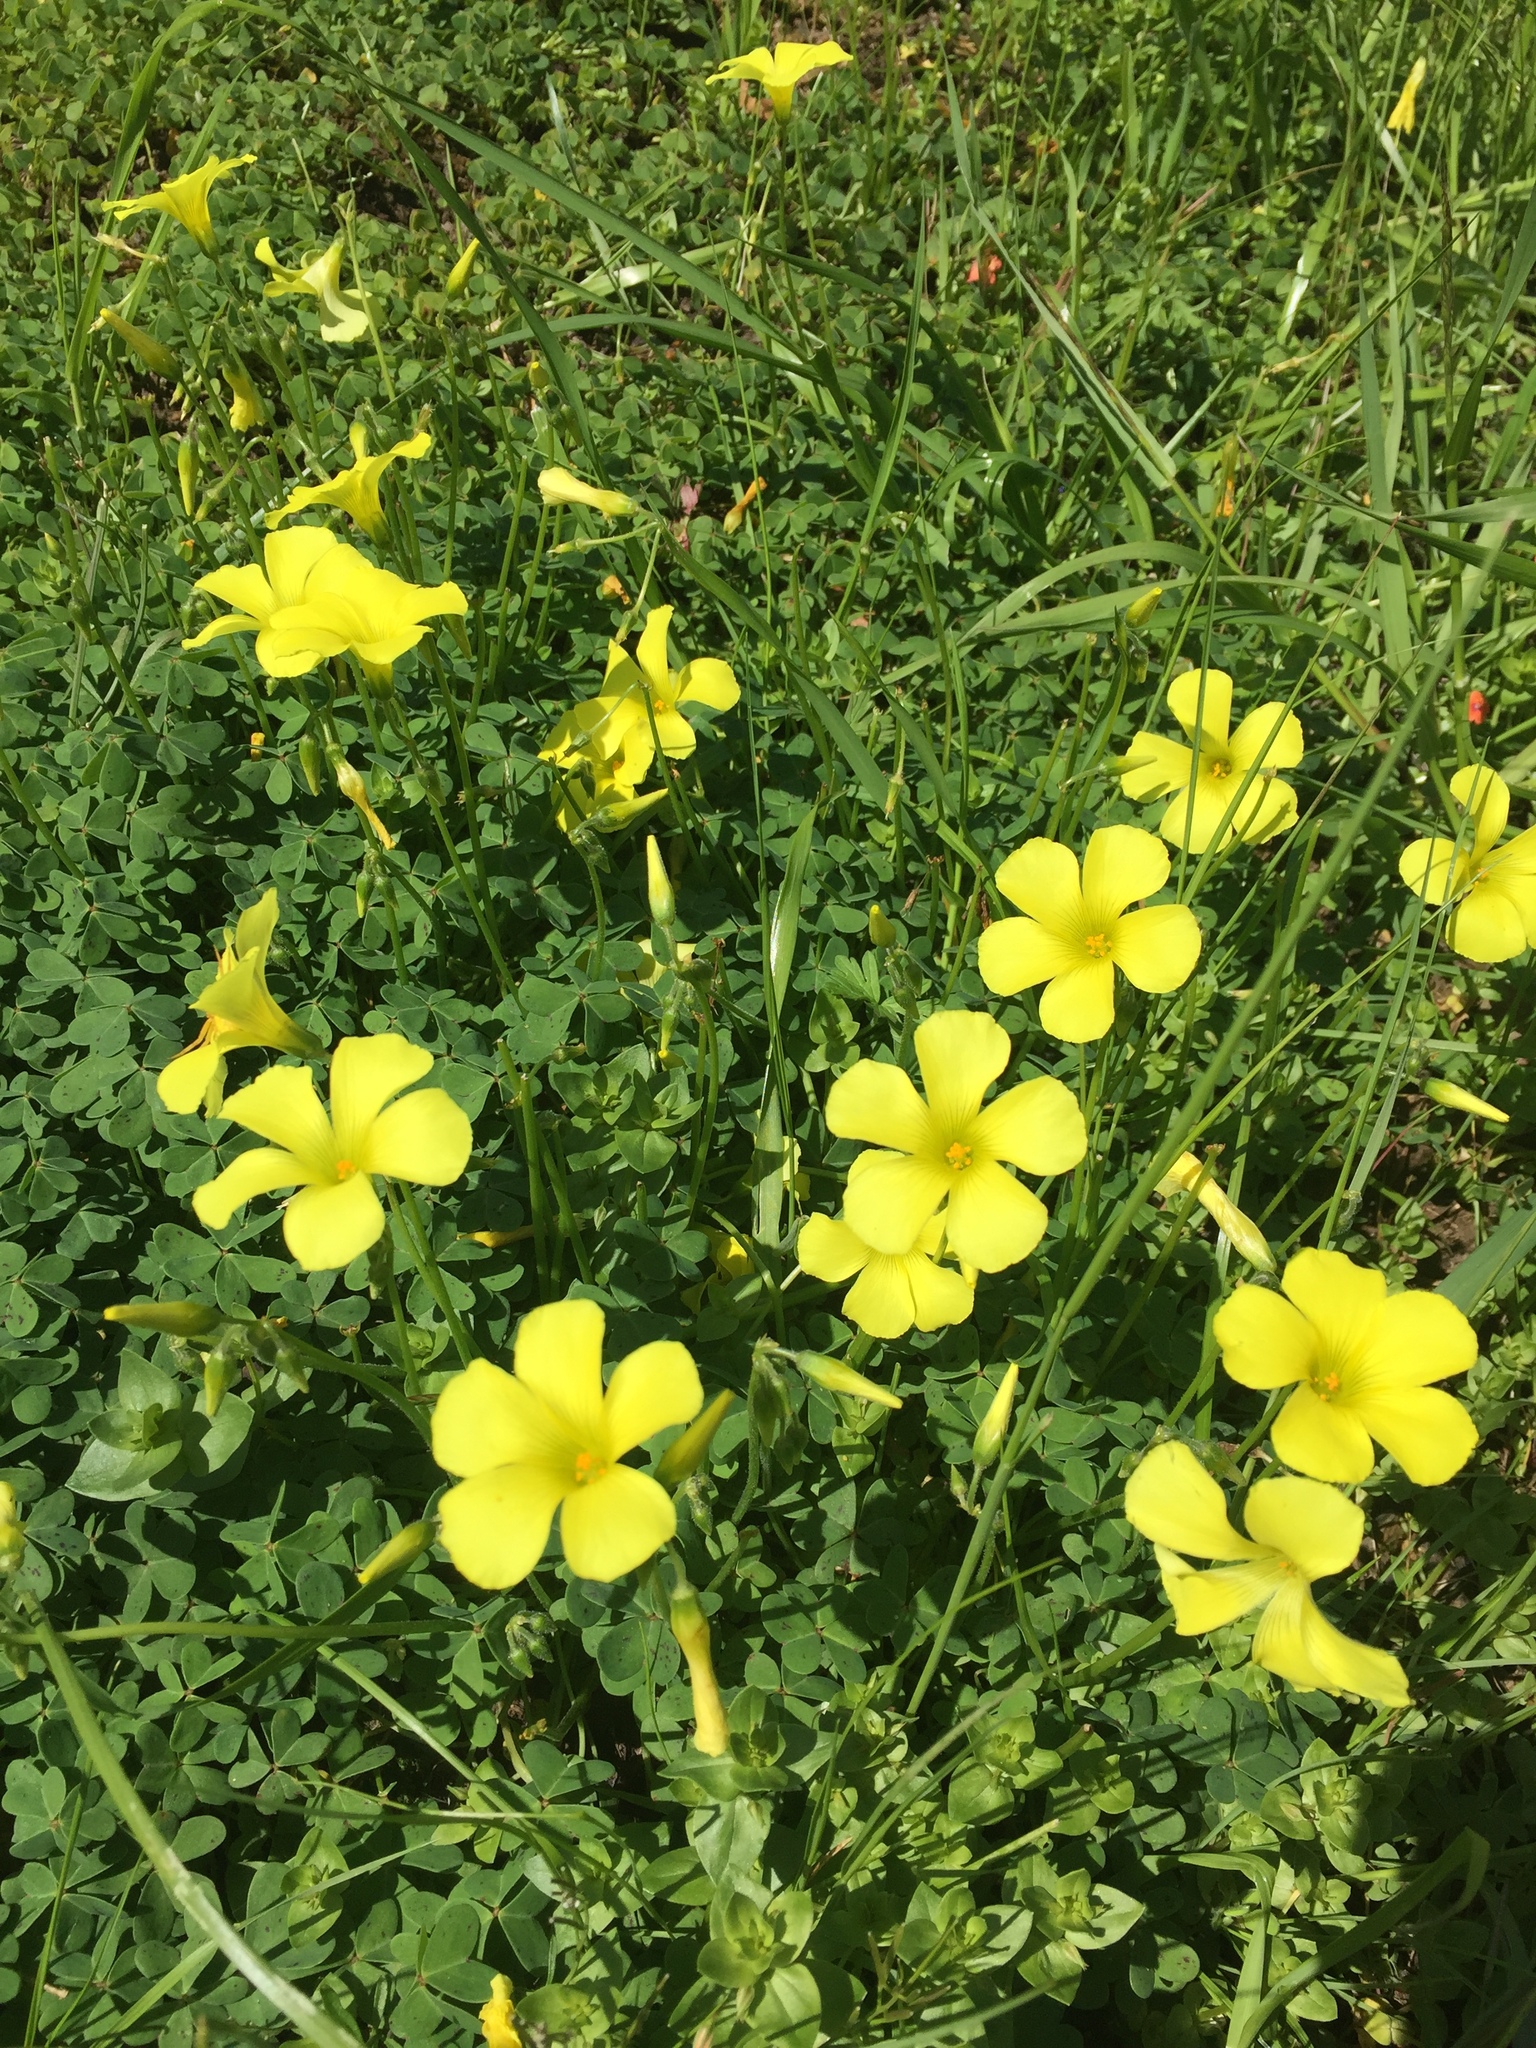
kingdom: Plantae
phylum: Tracheophyta
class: Magnoliopsida
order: Oxalidales
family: Oxalidaceae
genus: Oxalis
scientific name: Oxalis pes-caprae
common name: Bermuda-buttercup
